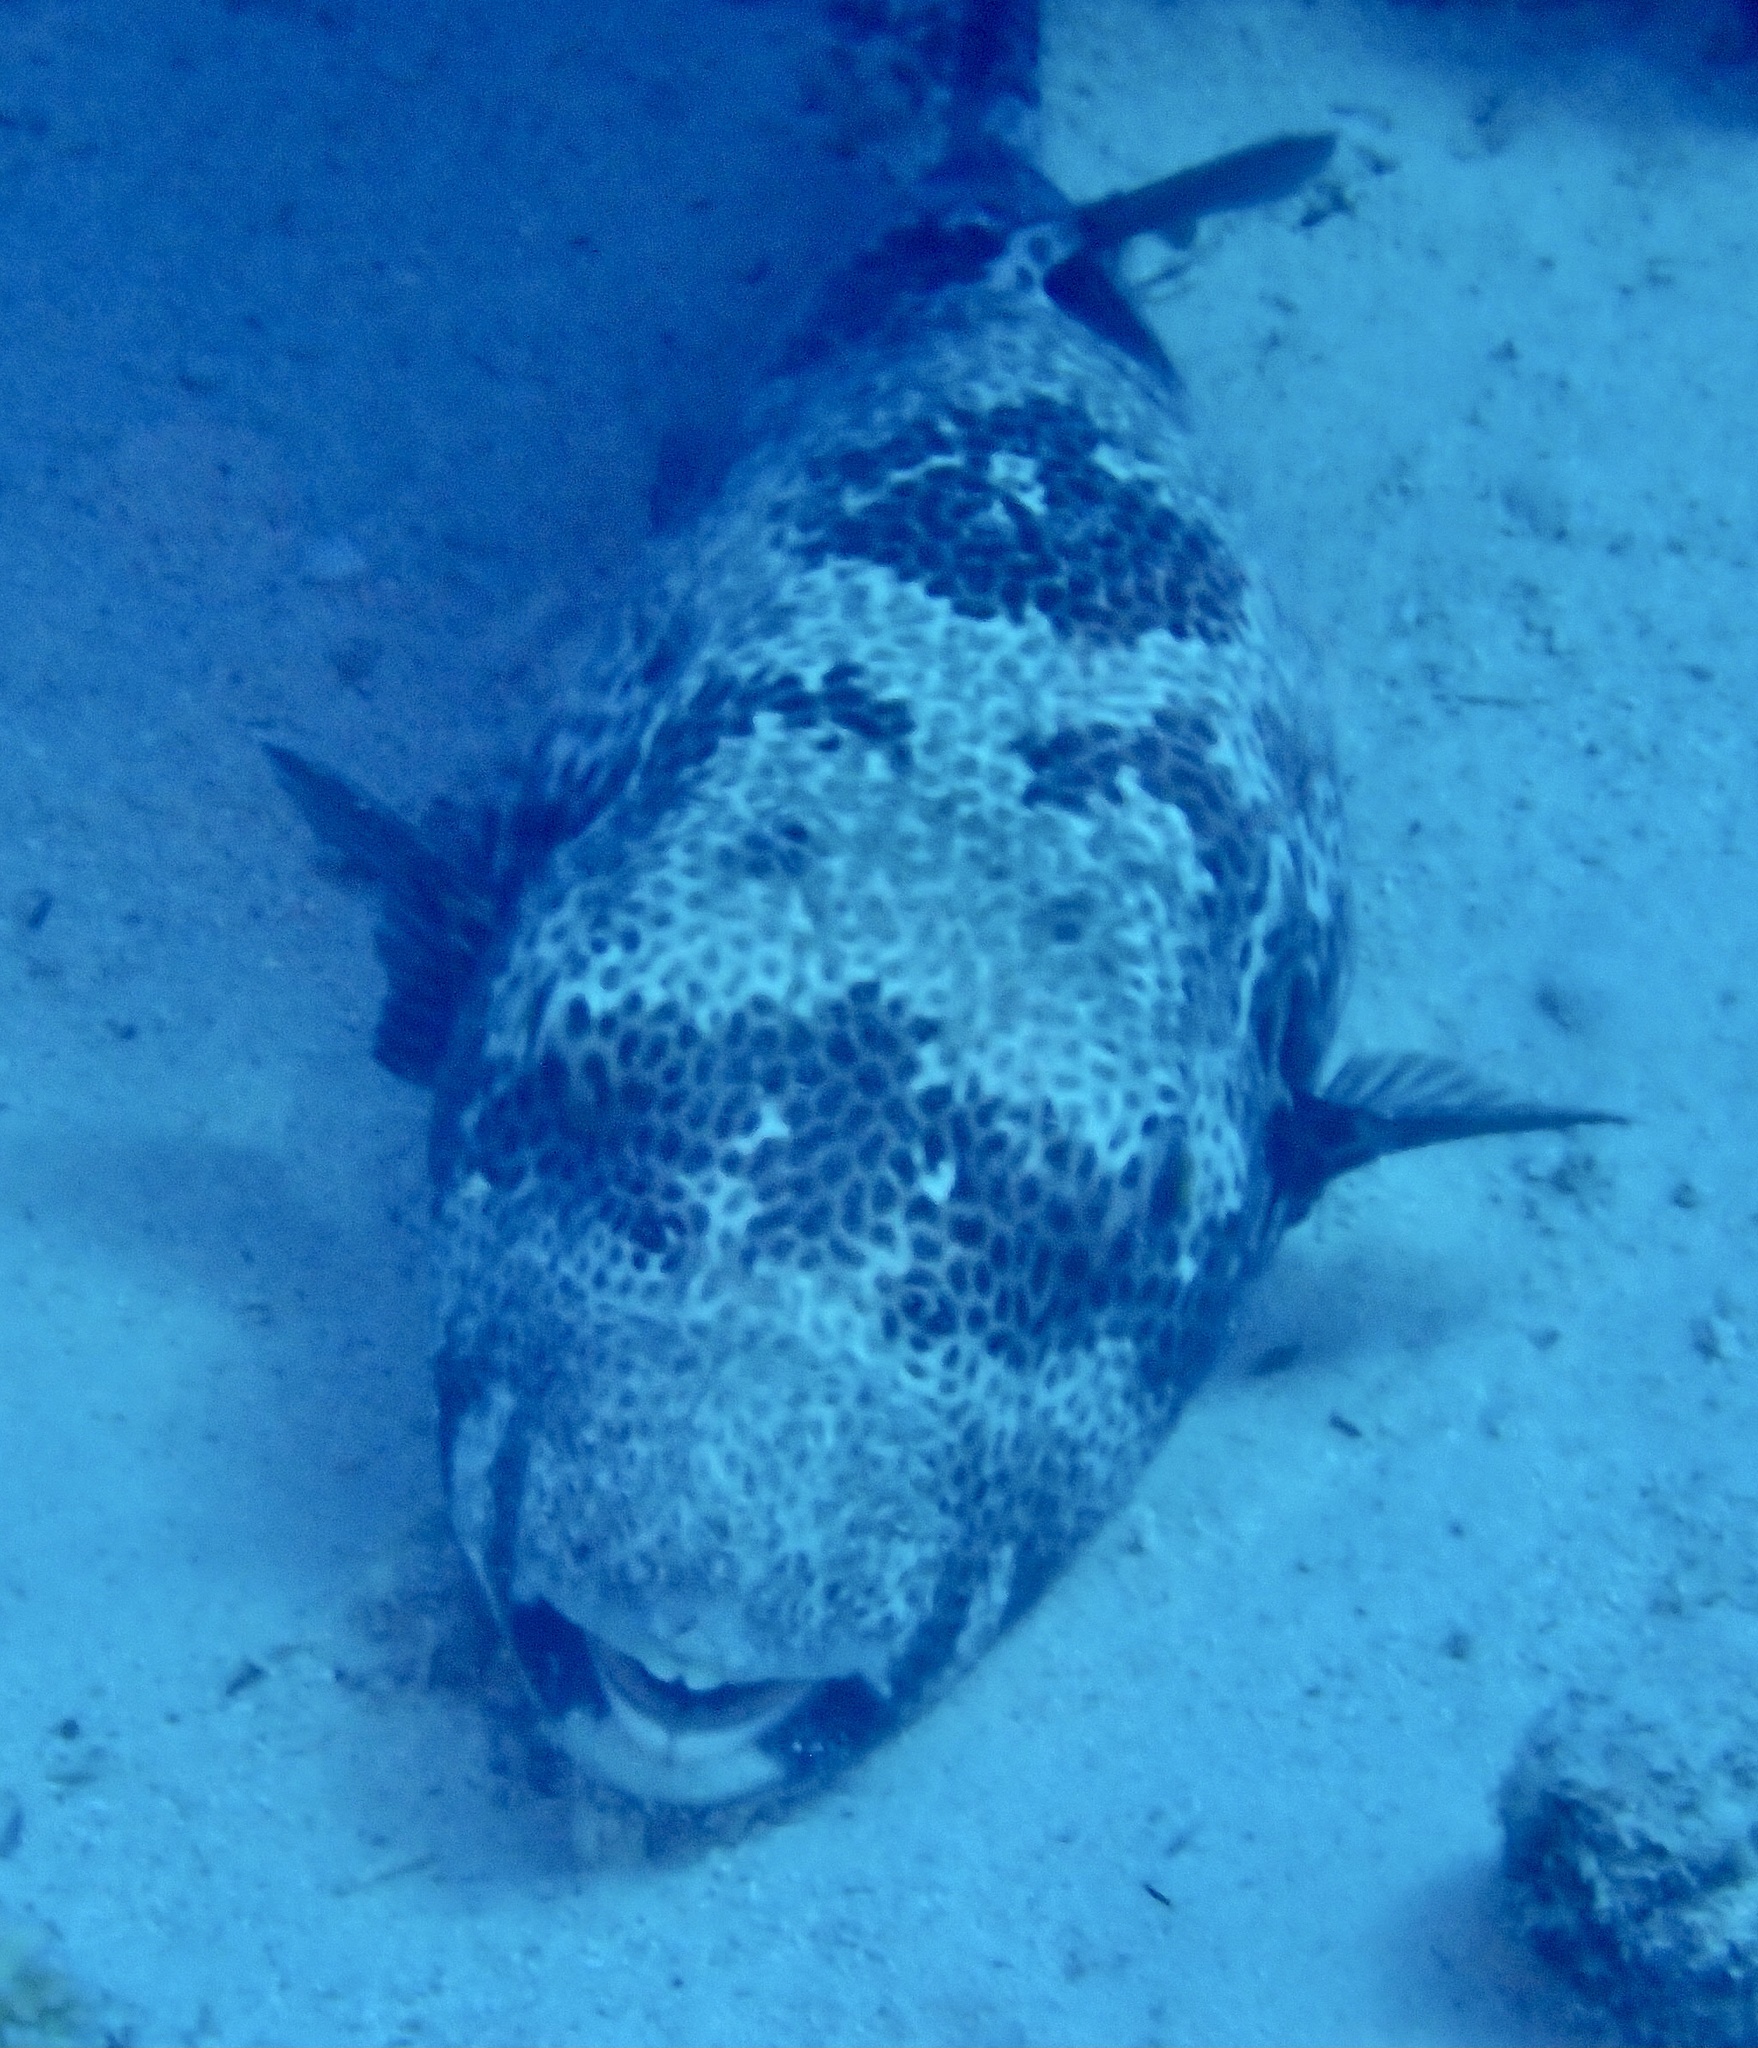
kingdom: Animalia
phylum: Chordata
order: Tetraodontiformes
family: Tetraodontidae
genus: Arothron
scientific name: Arothron stellatus
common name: Star blaasop
